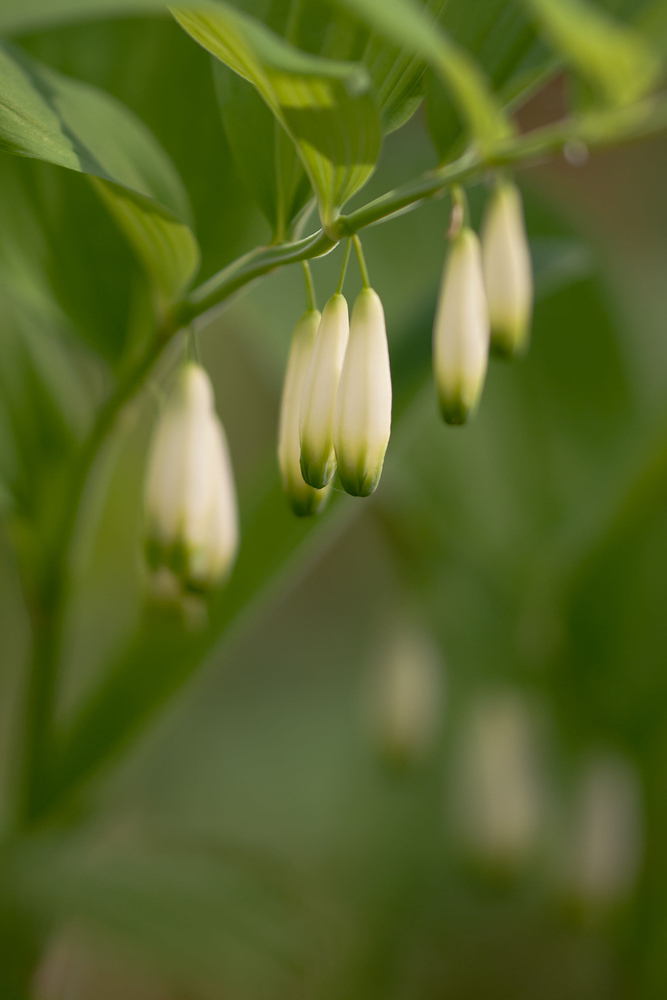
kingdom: Plantae
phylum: Tracheophyta
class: Liliopsida
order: Asparagales
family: Asparagaceae
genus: Polygonatum
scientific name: Polygonatum multiflorum
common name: Solomon's-seal
